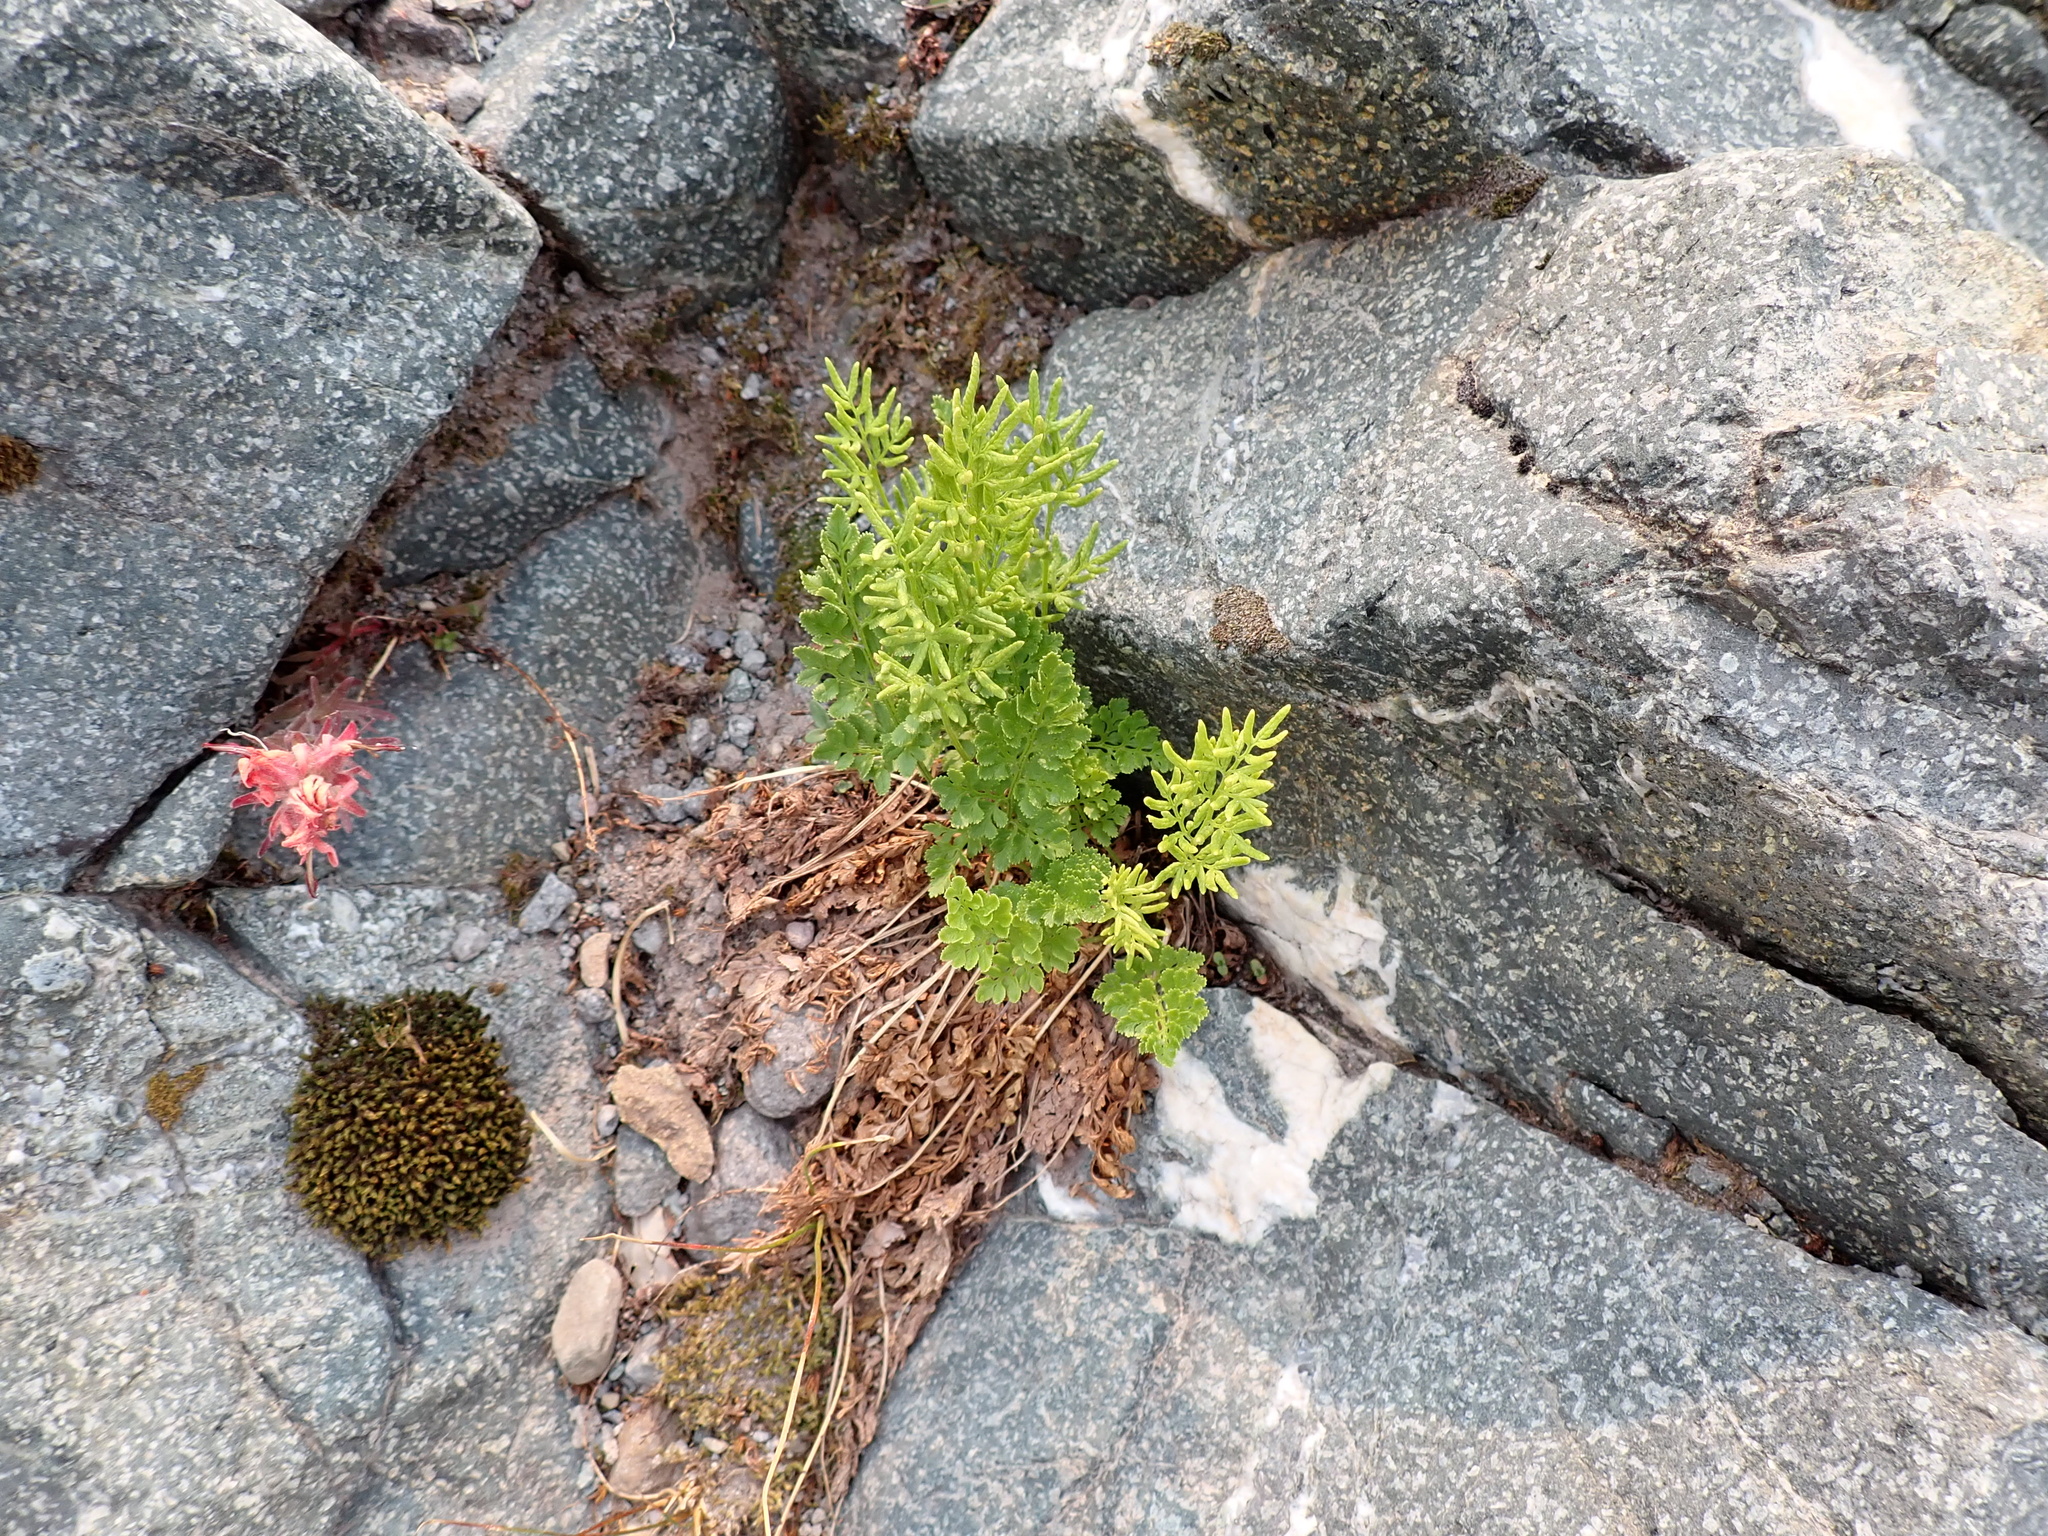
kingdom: Plantae
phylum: Tracheophyta
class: Polypodiopsida
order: Polypodiales
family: Pteridaceae
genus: Cryptogramma
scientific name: Cryptogramma acrostichoides
